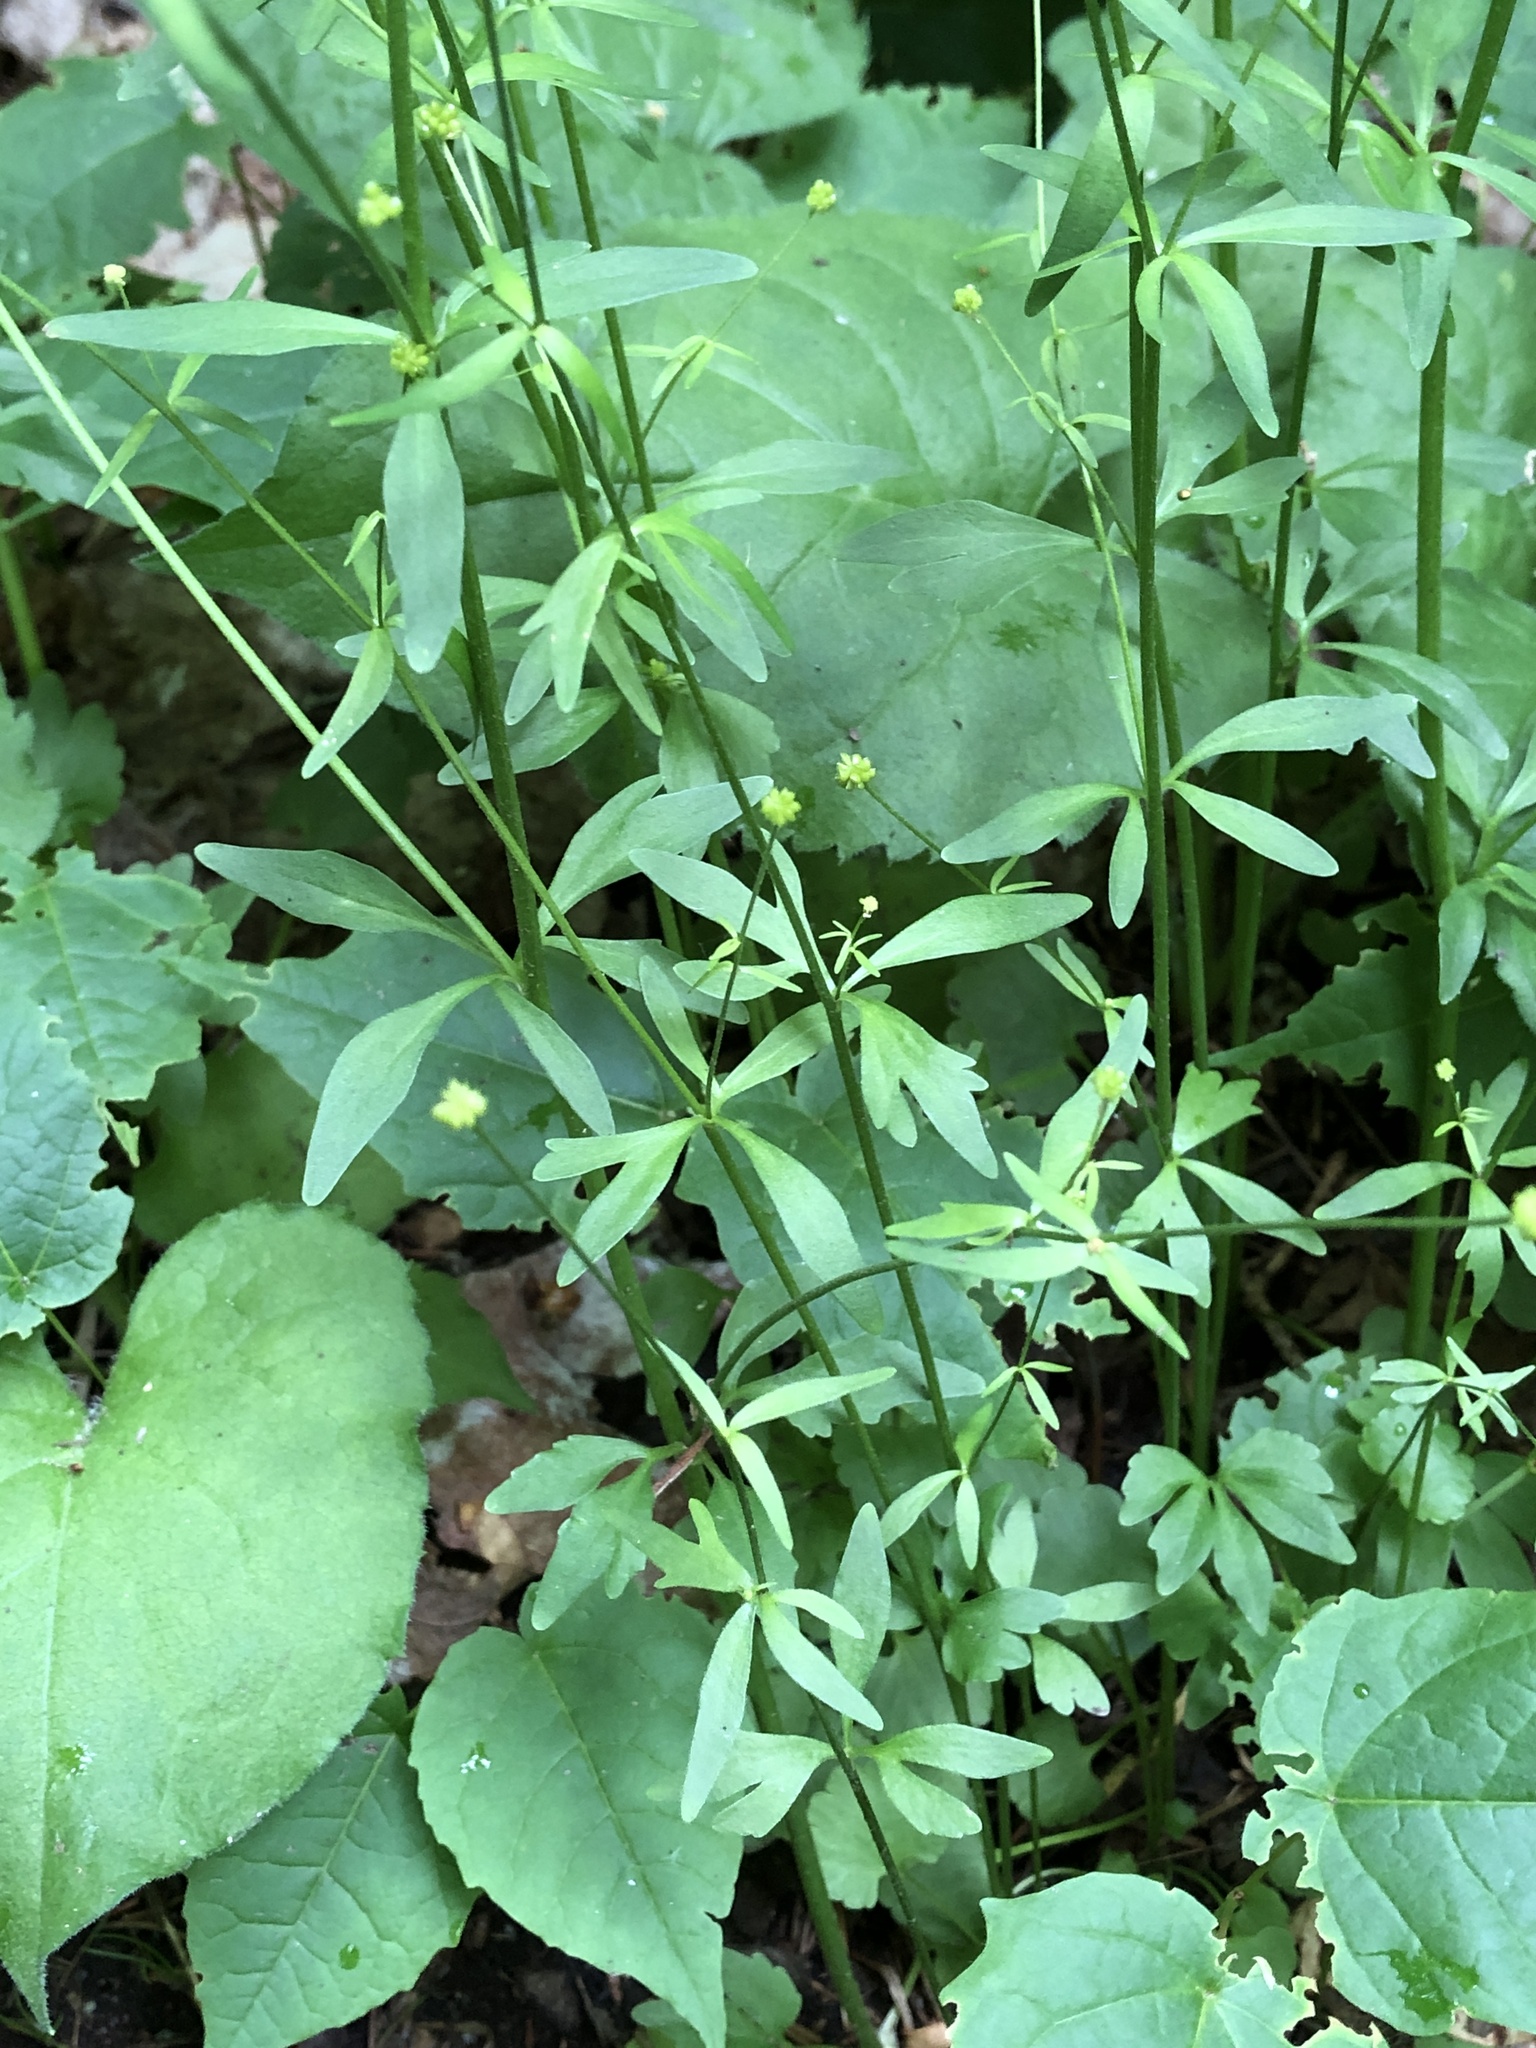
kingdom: Plantae
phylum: Tracheophyta
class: Magnoliopsida
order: Ranunculales
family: Ranunculaceae
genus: Ranunculus
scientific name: Ranunculus abortivus
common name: Early wood buttercup
